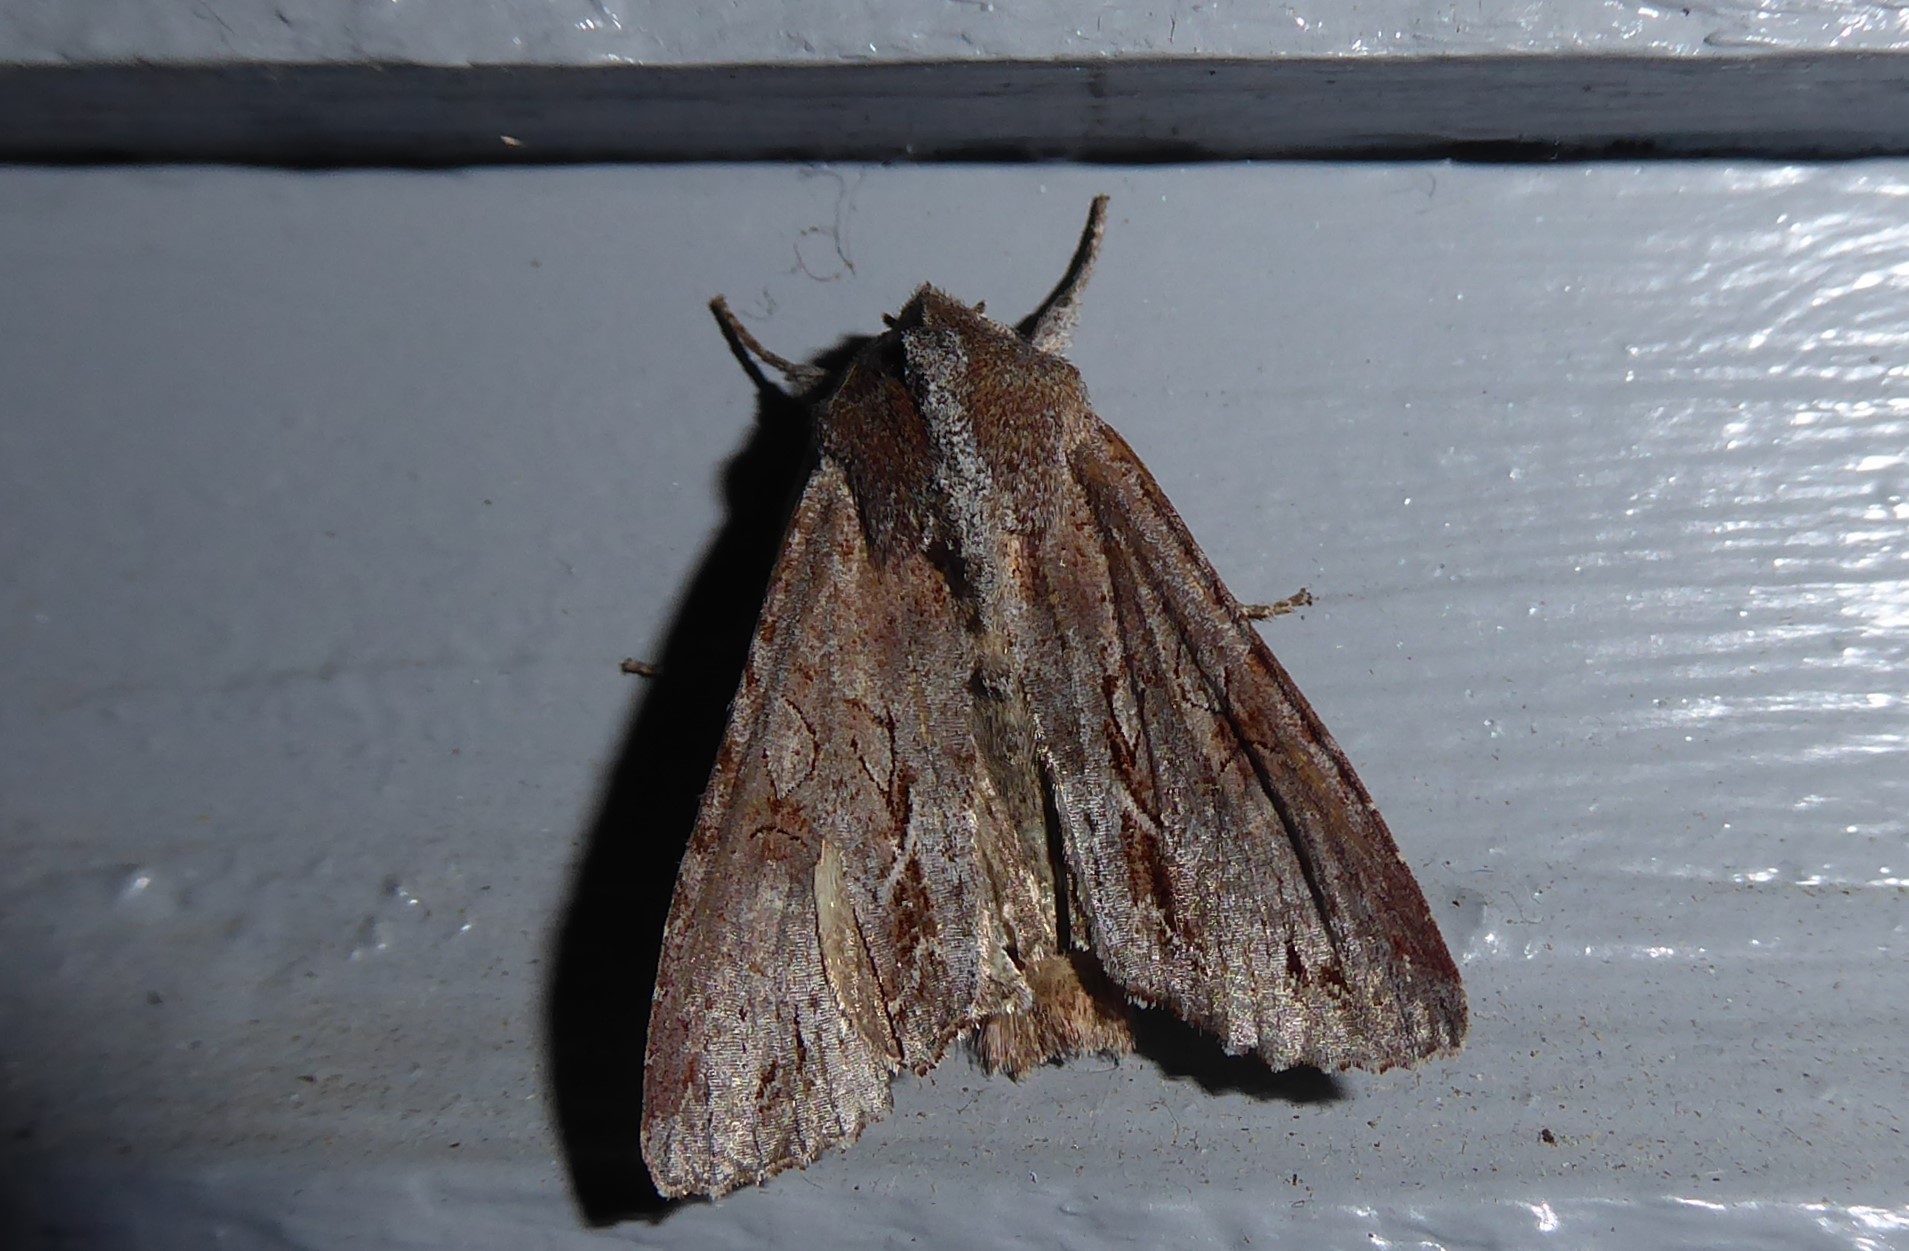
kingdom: Animalia
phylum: Arthropoda
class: Insecta
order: Lepidoptera
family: Noctuidae
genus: Ichneutica
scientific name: Ichneutica
